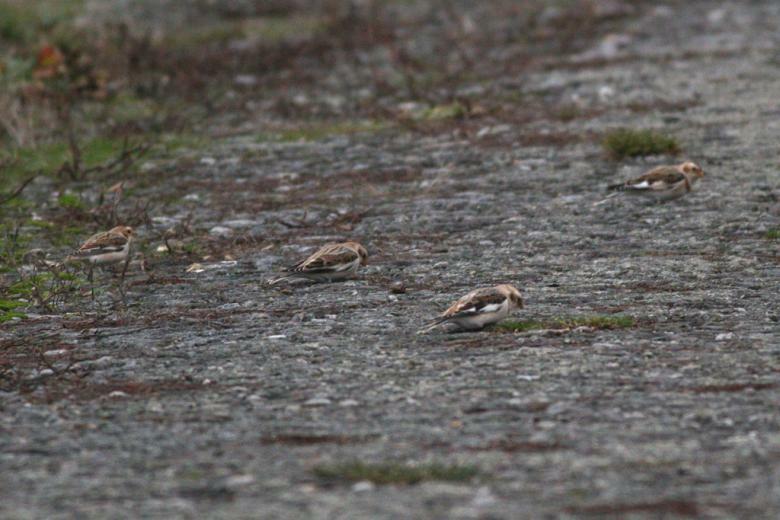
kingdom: Animalia
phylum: Chordata
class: Aves
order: Passeriformes
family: Calcariidae
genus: Plectrophenax
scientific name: Plectrophenax nivalis
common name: Snow bunting
